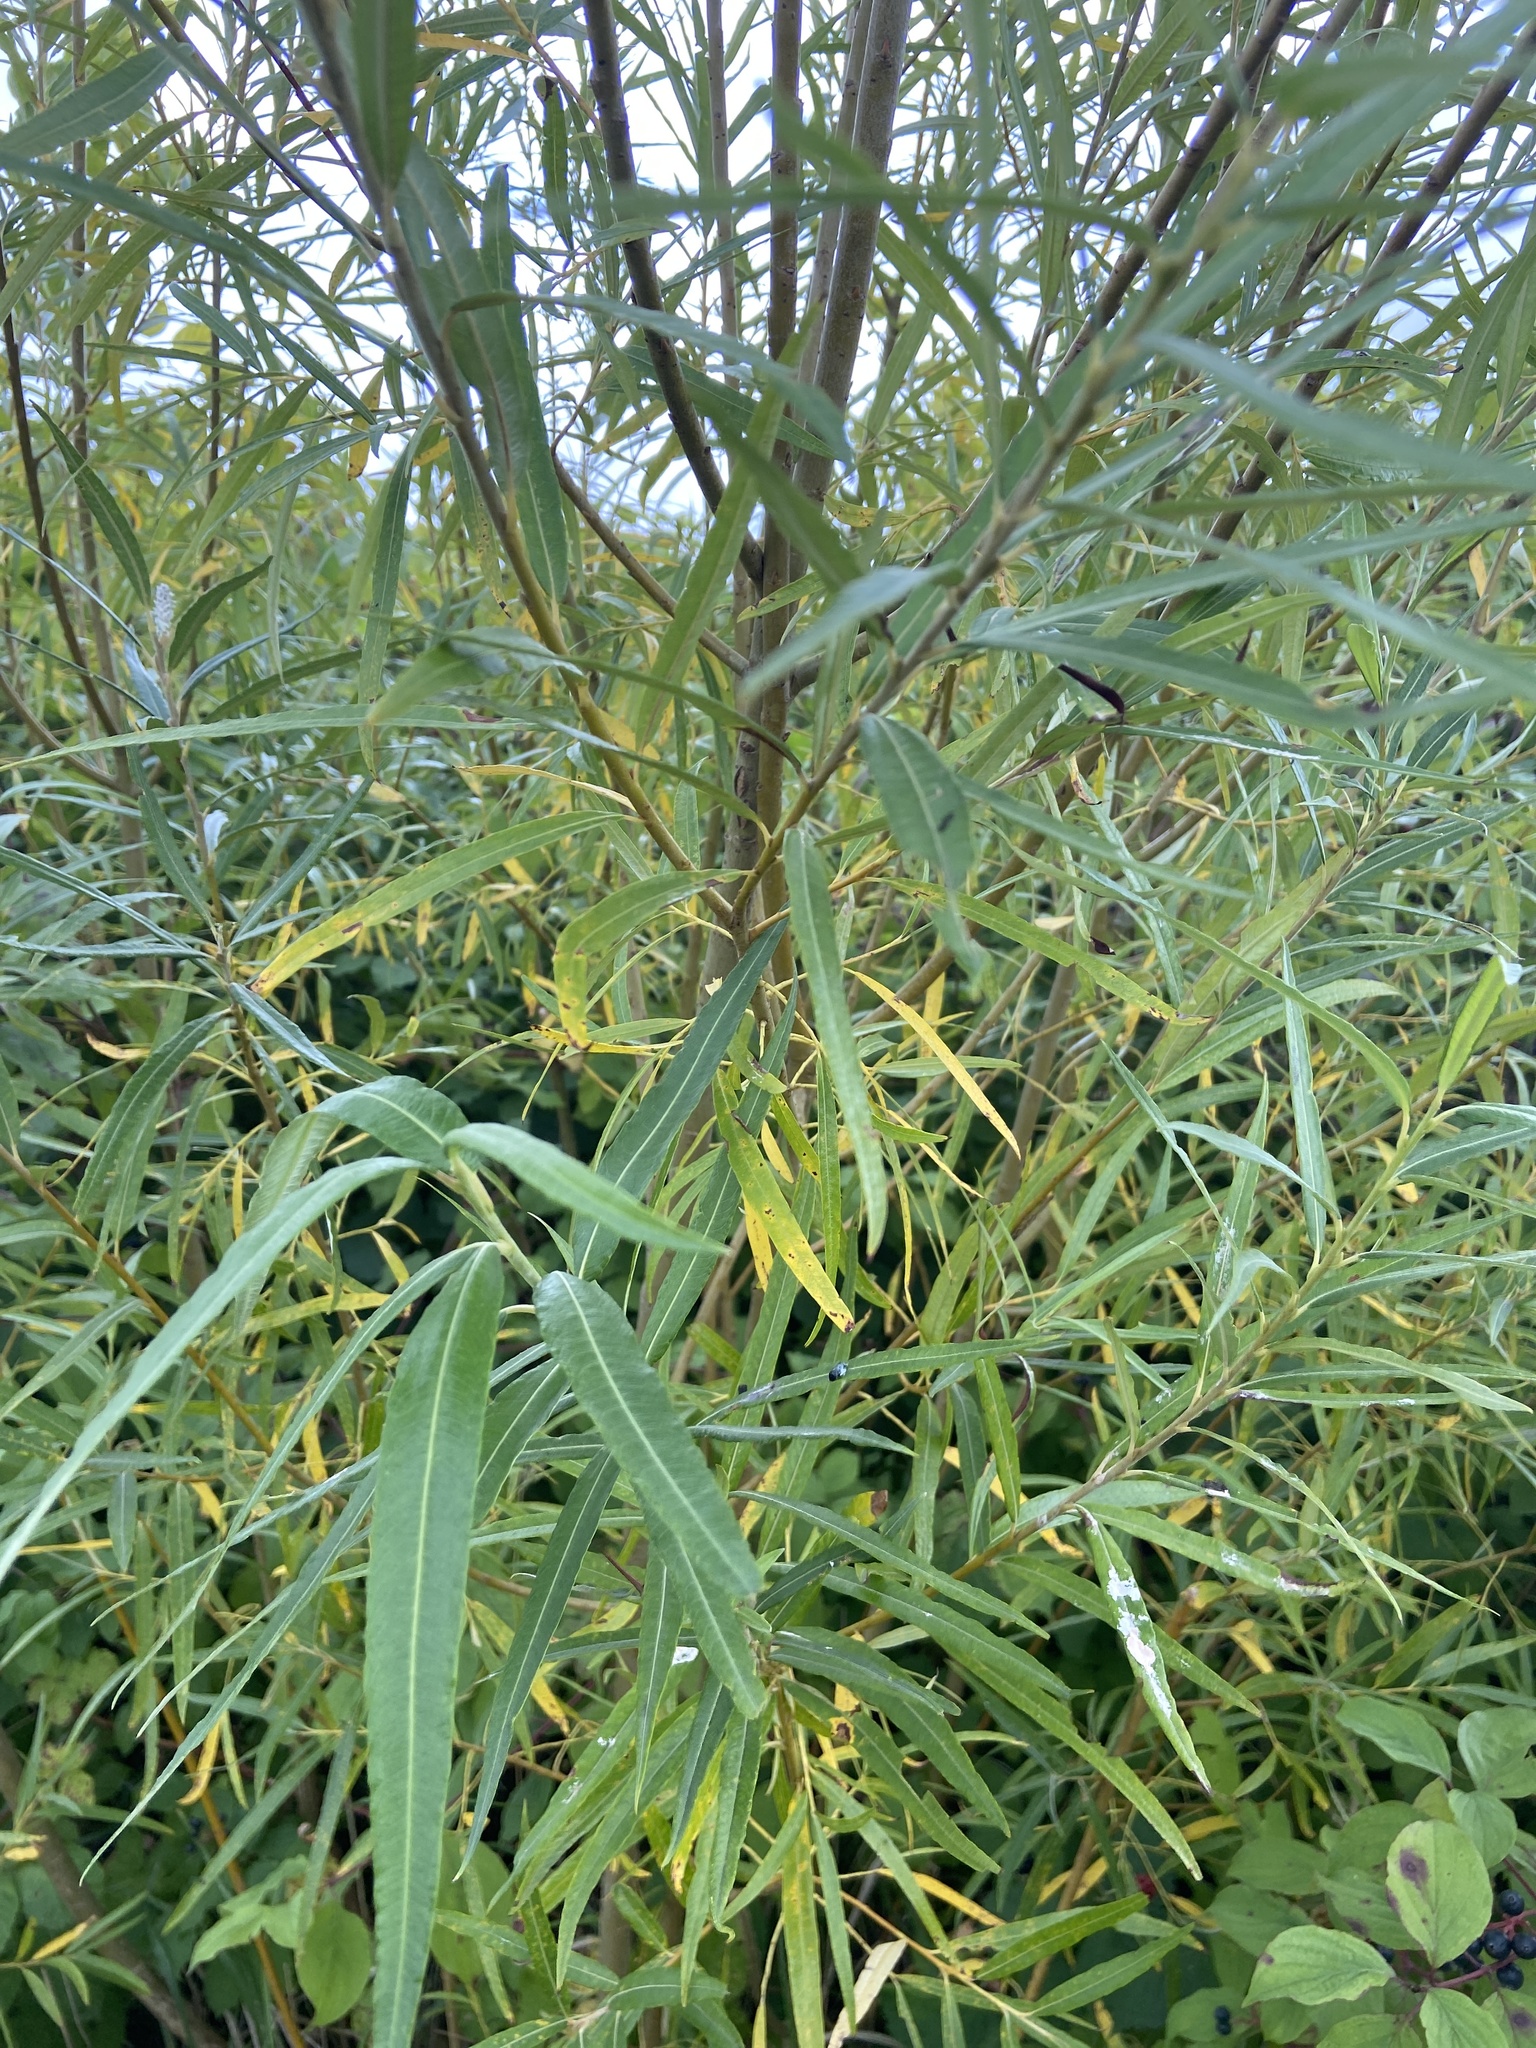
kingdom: Plantae
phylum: Tracheophyta
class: Magnoliopsida
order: Malpighiales
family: Salicaceae
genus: Salix
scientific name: Salix viminalis
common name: Osier
